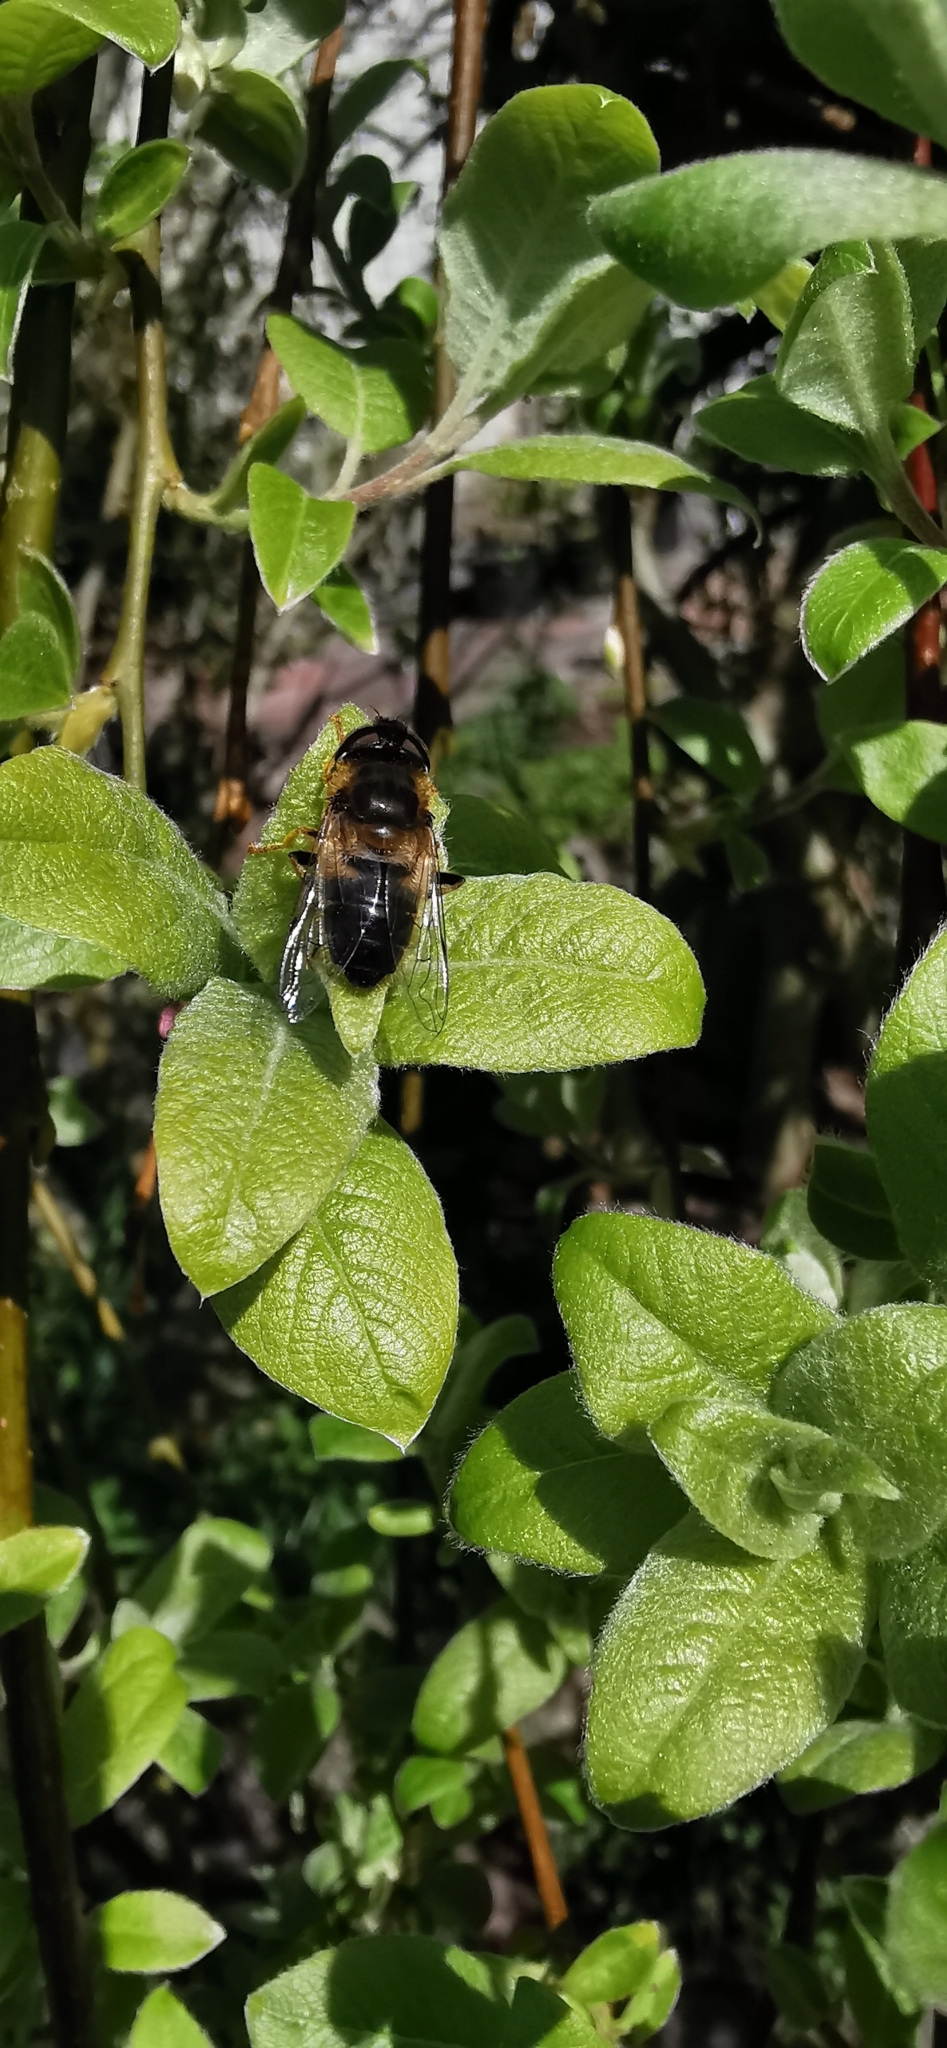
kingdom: Animalia
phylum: Arthropoda
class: Insecta
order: Diptera
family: Syrphidae
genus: Eristalis
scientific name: Eristalis pertinax
